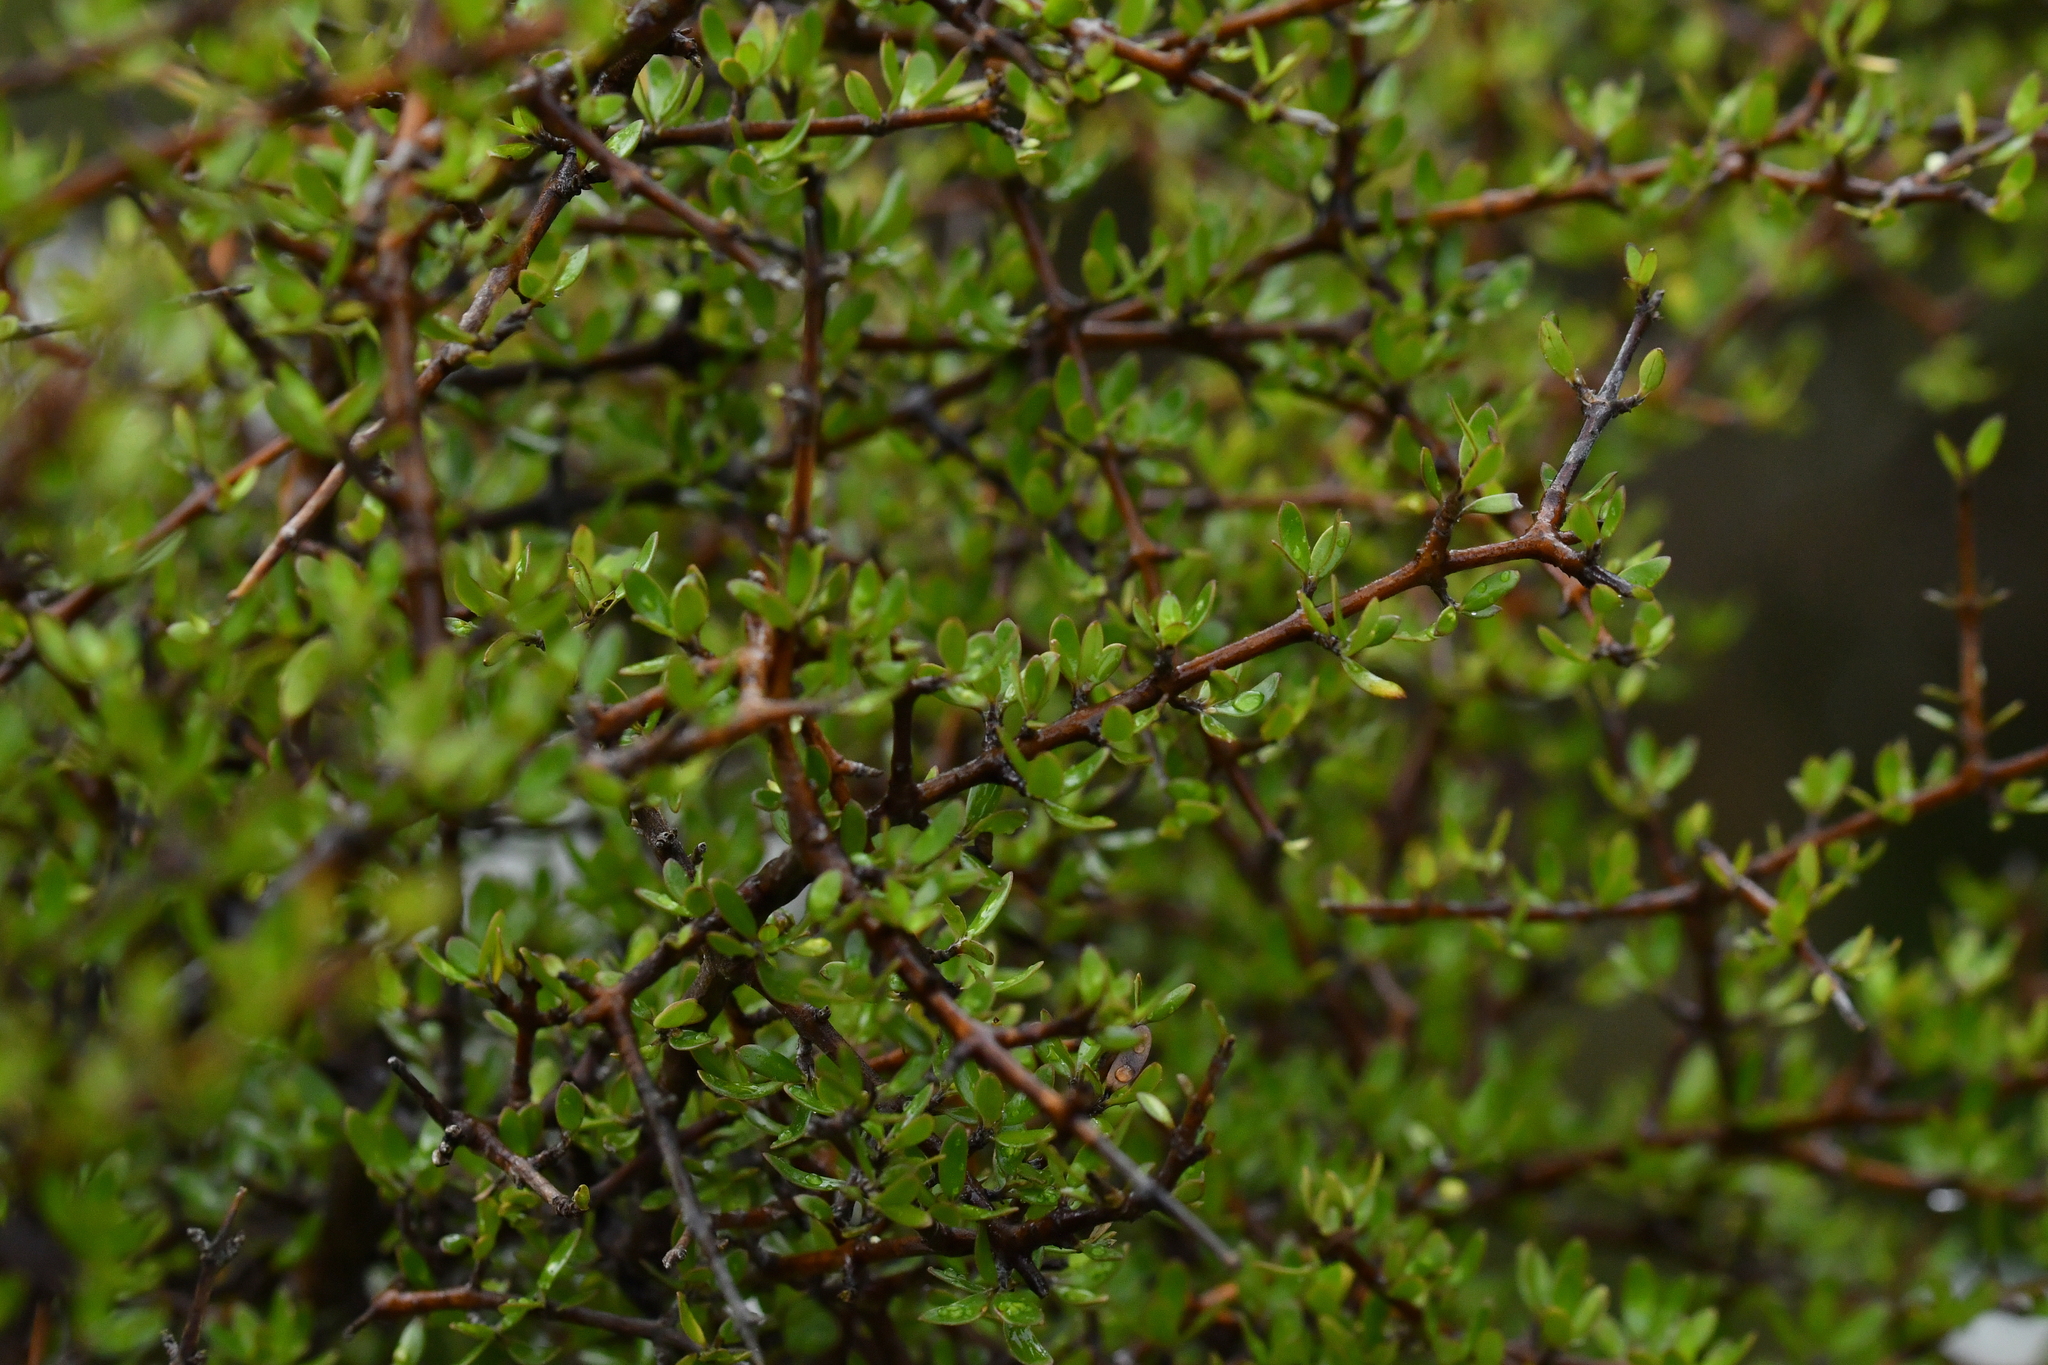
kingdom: Plantae
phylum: Tracheophyta
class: Magnoliopsida
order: Gentianales
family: Rubiaceae
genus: Coprosma
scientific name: Coprosma propinqua
